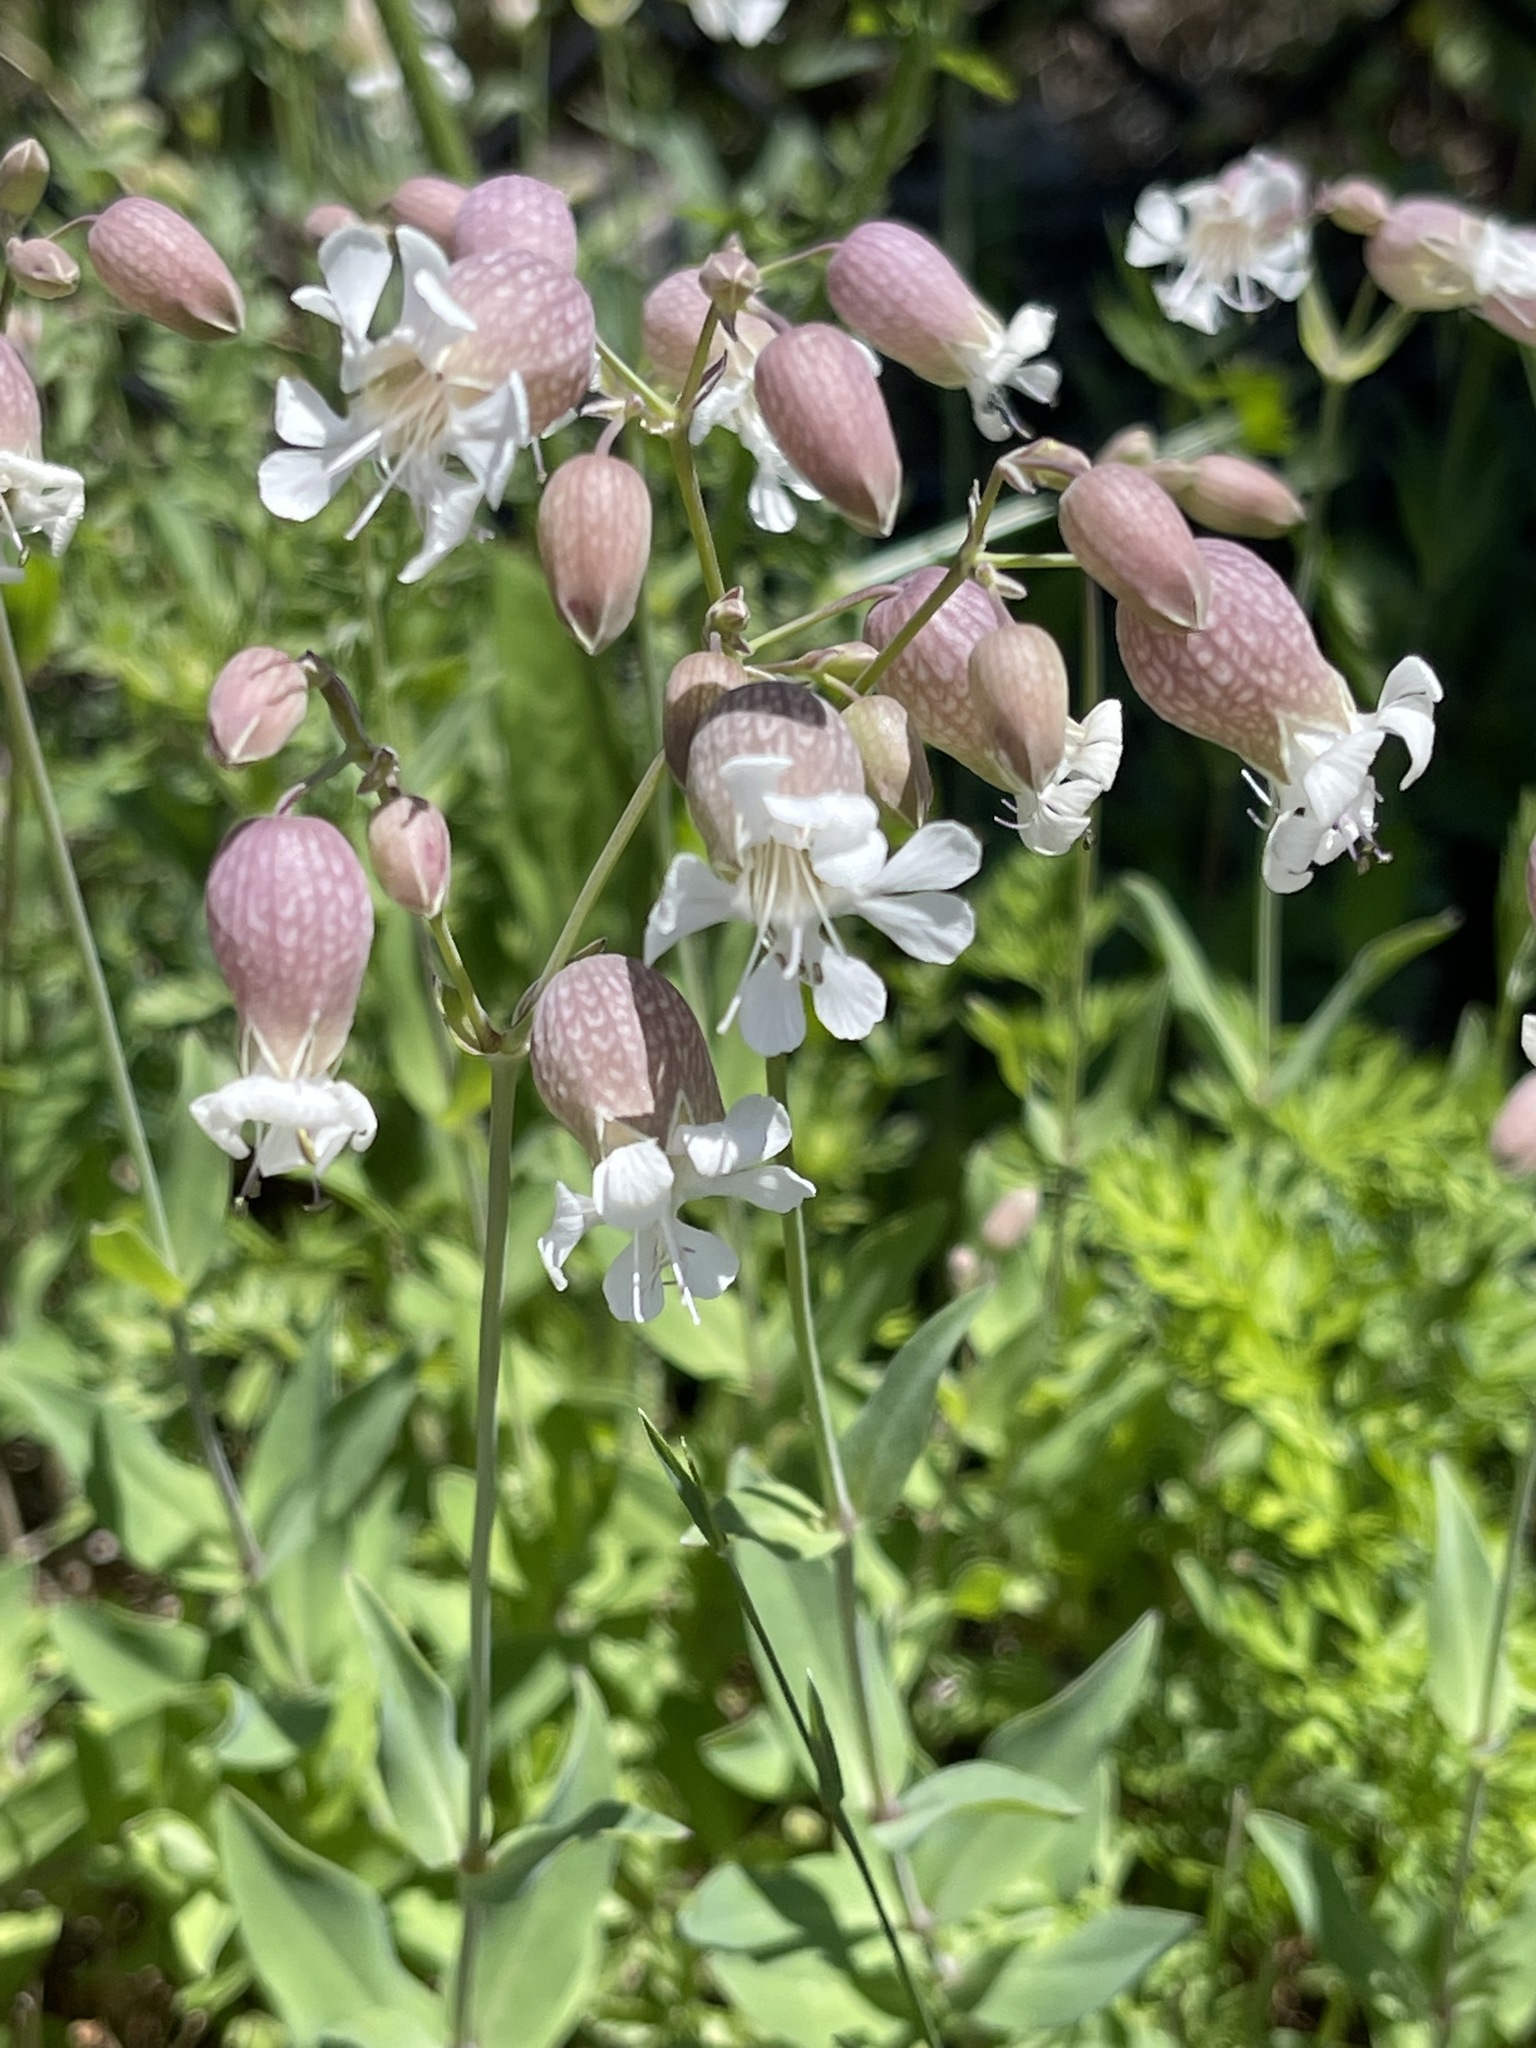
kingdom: Plantae
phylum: Tracheophyta
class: Magnoliopsida
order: Caryophyllales
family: Caryophyllaceae
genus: Silene
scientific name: Silene vulgaris
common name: Bladder campion
